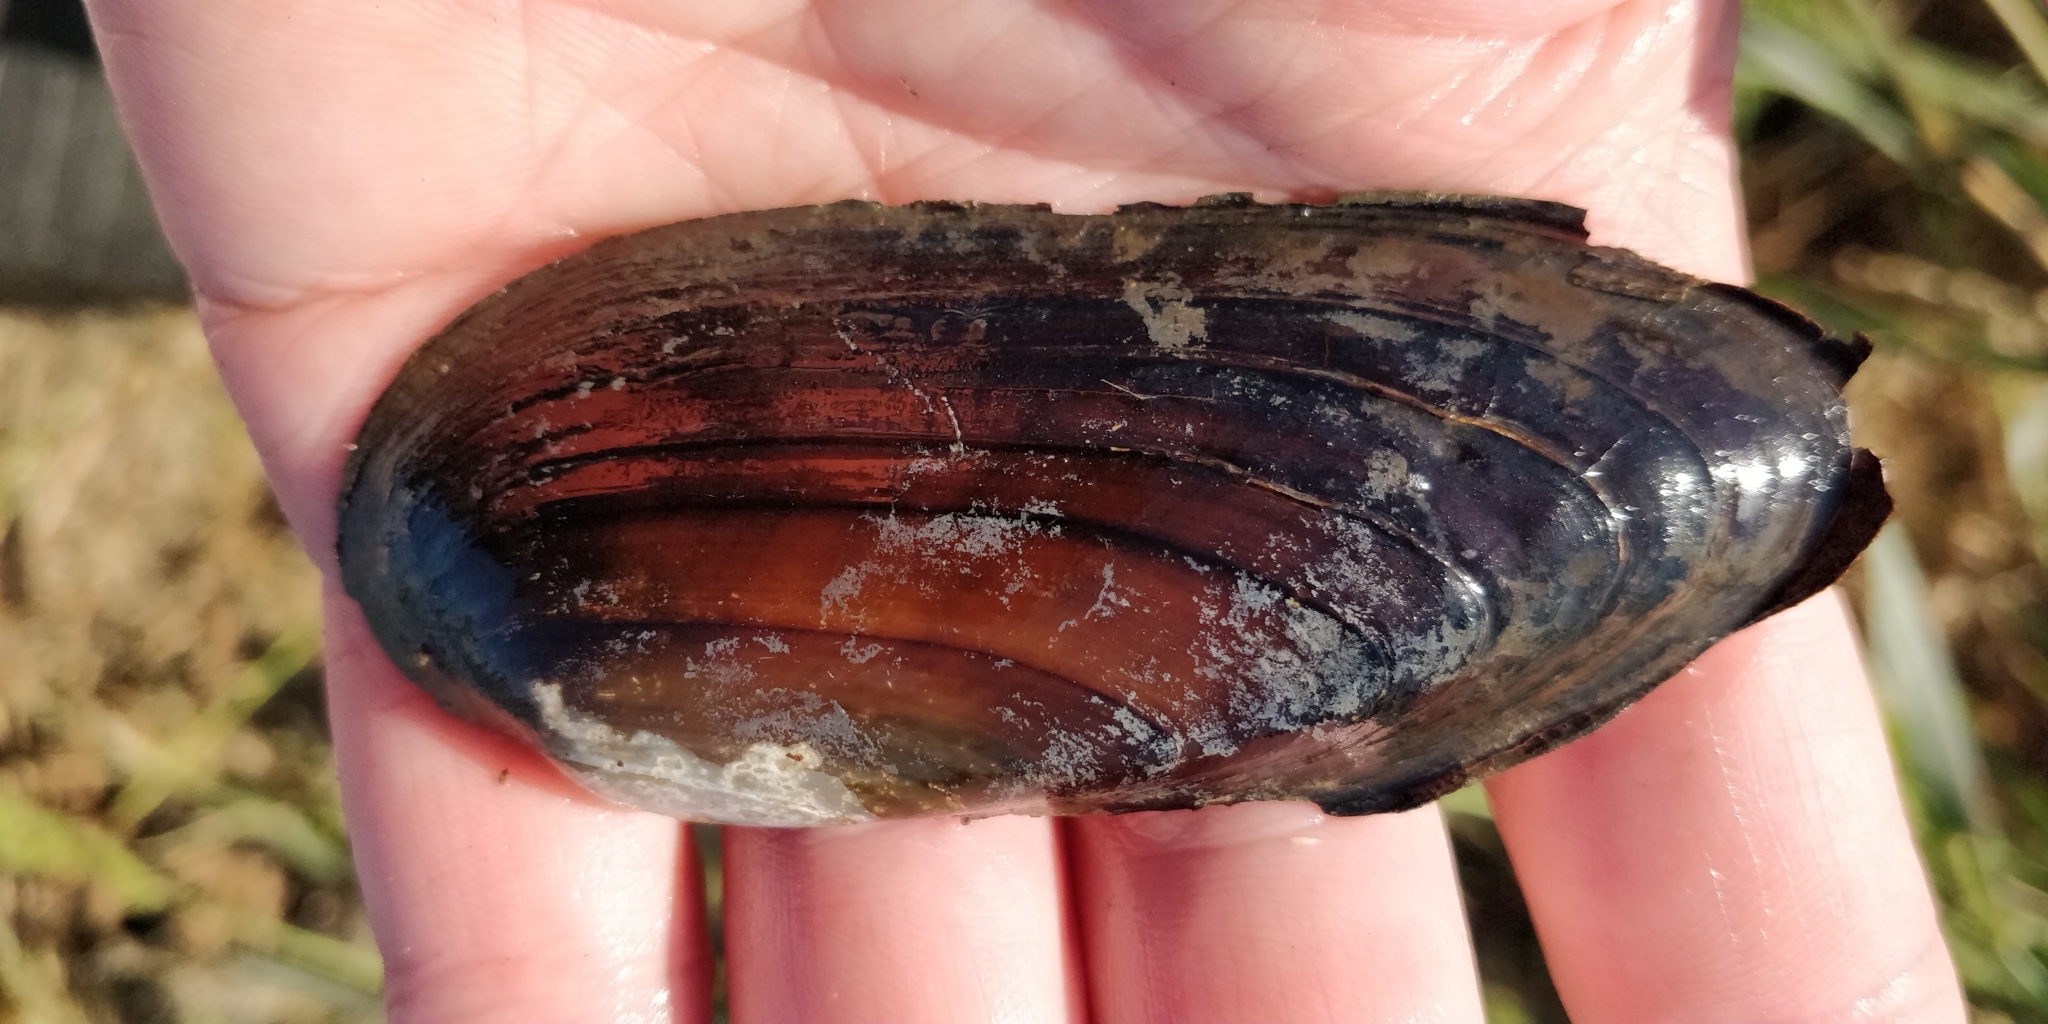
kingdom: Animalia
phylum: Mollusca
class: Bivalvia
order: Unionida
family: Unionidae
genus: Ligumia
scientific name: Ligumia recta
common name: Black sandshell
